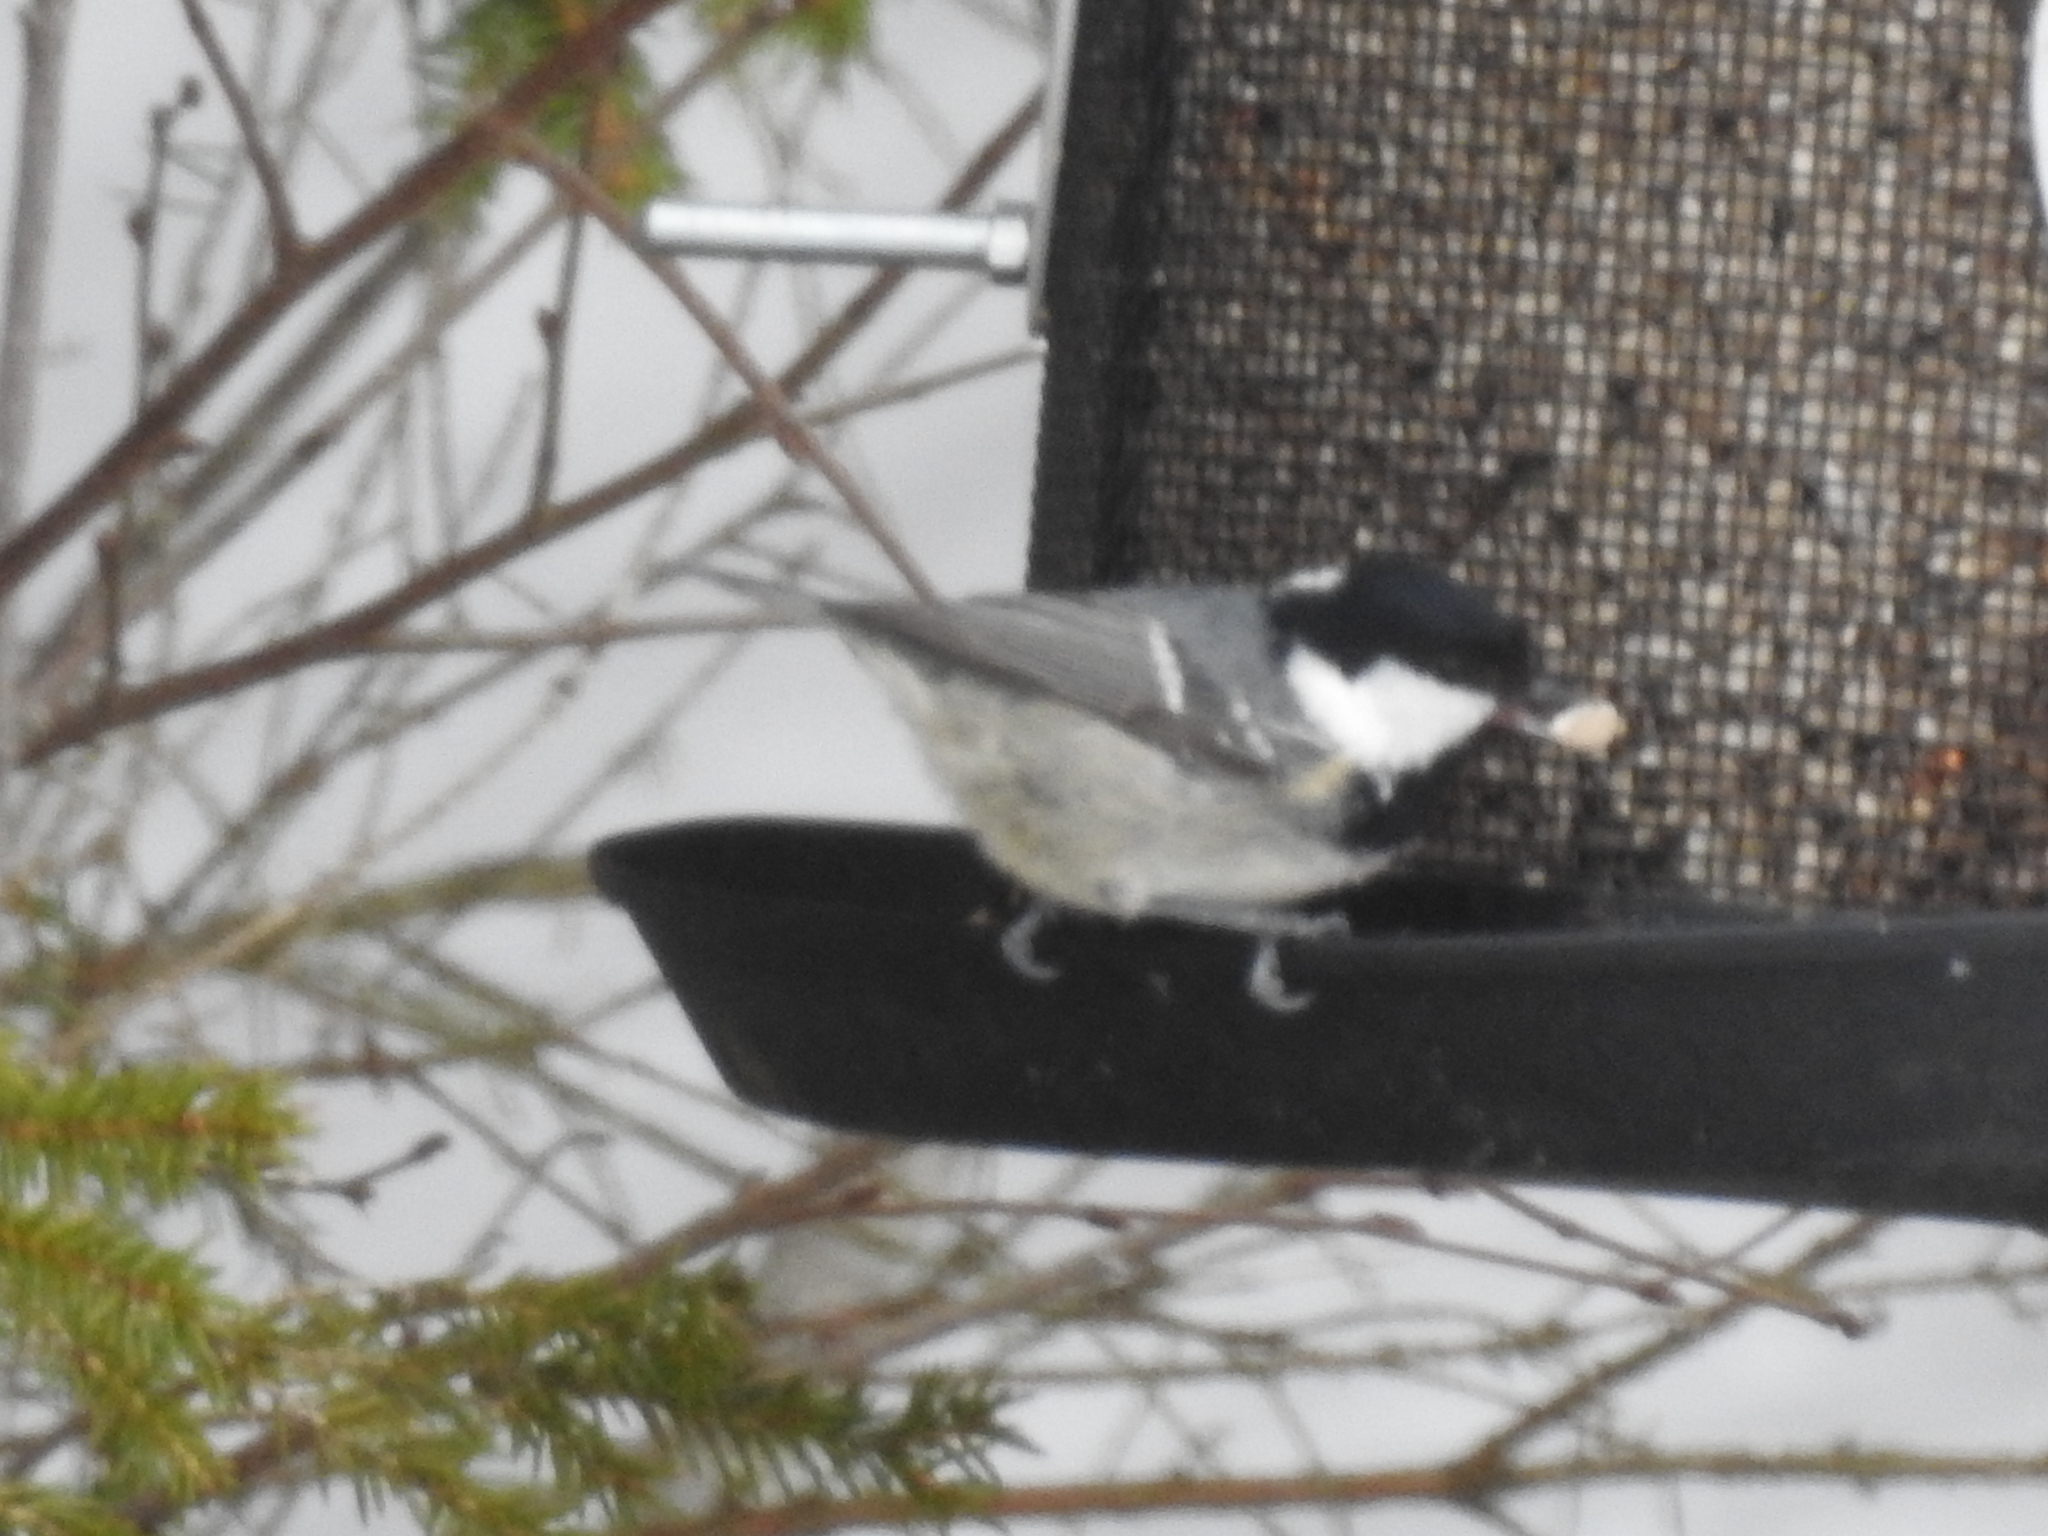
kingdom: Animalia
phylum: Chordata
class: Aves
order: Passeriformes
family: Paridae
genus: Periparus
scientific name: Periparus ater
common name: Coal tit
